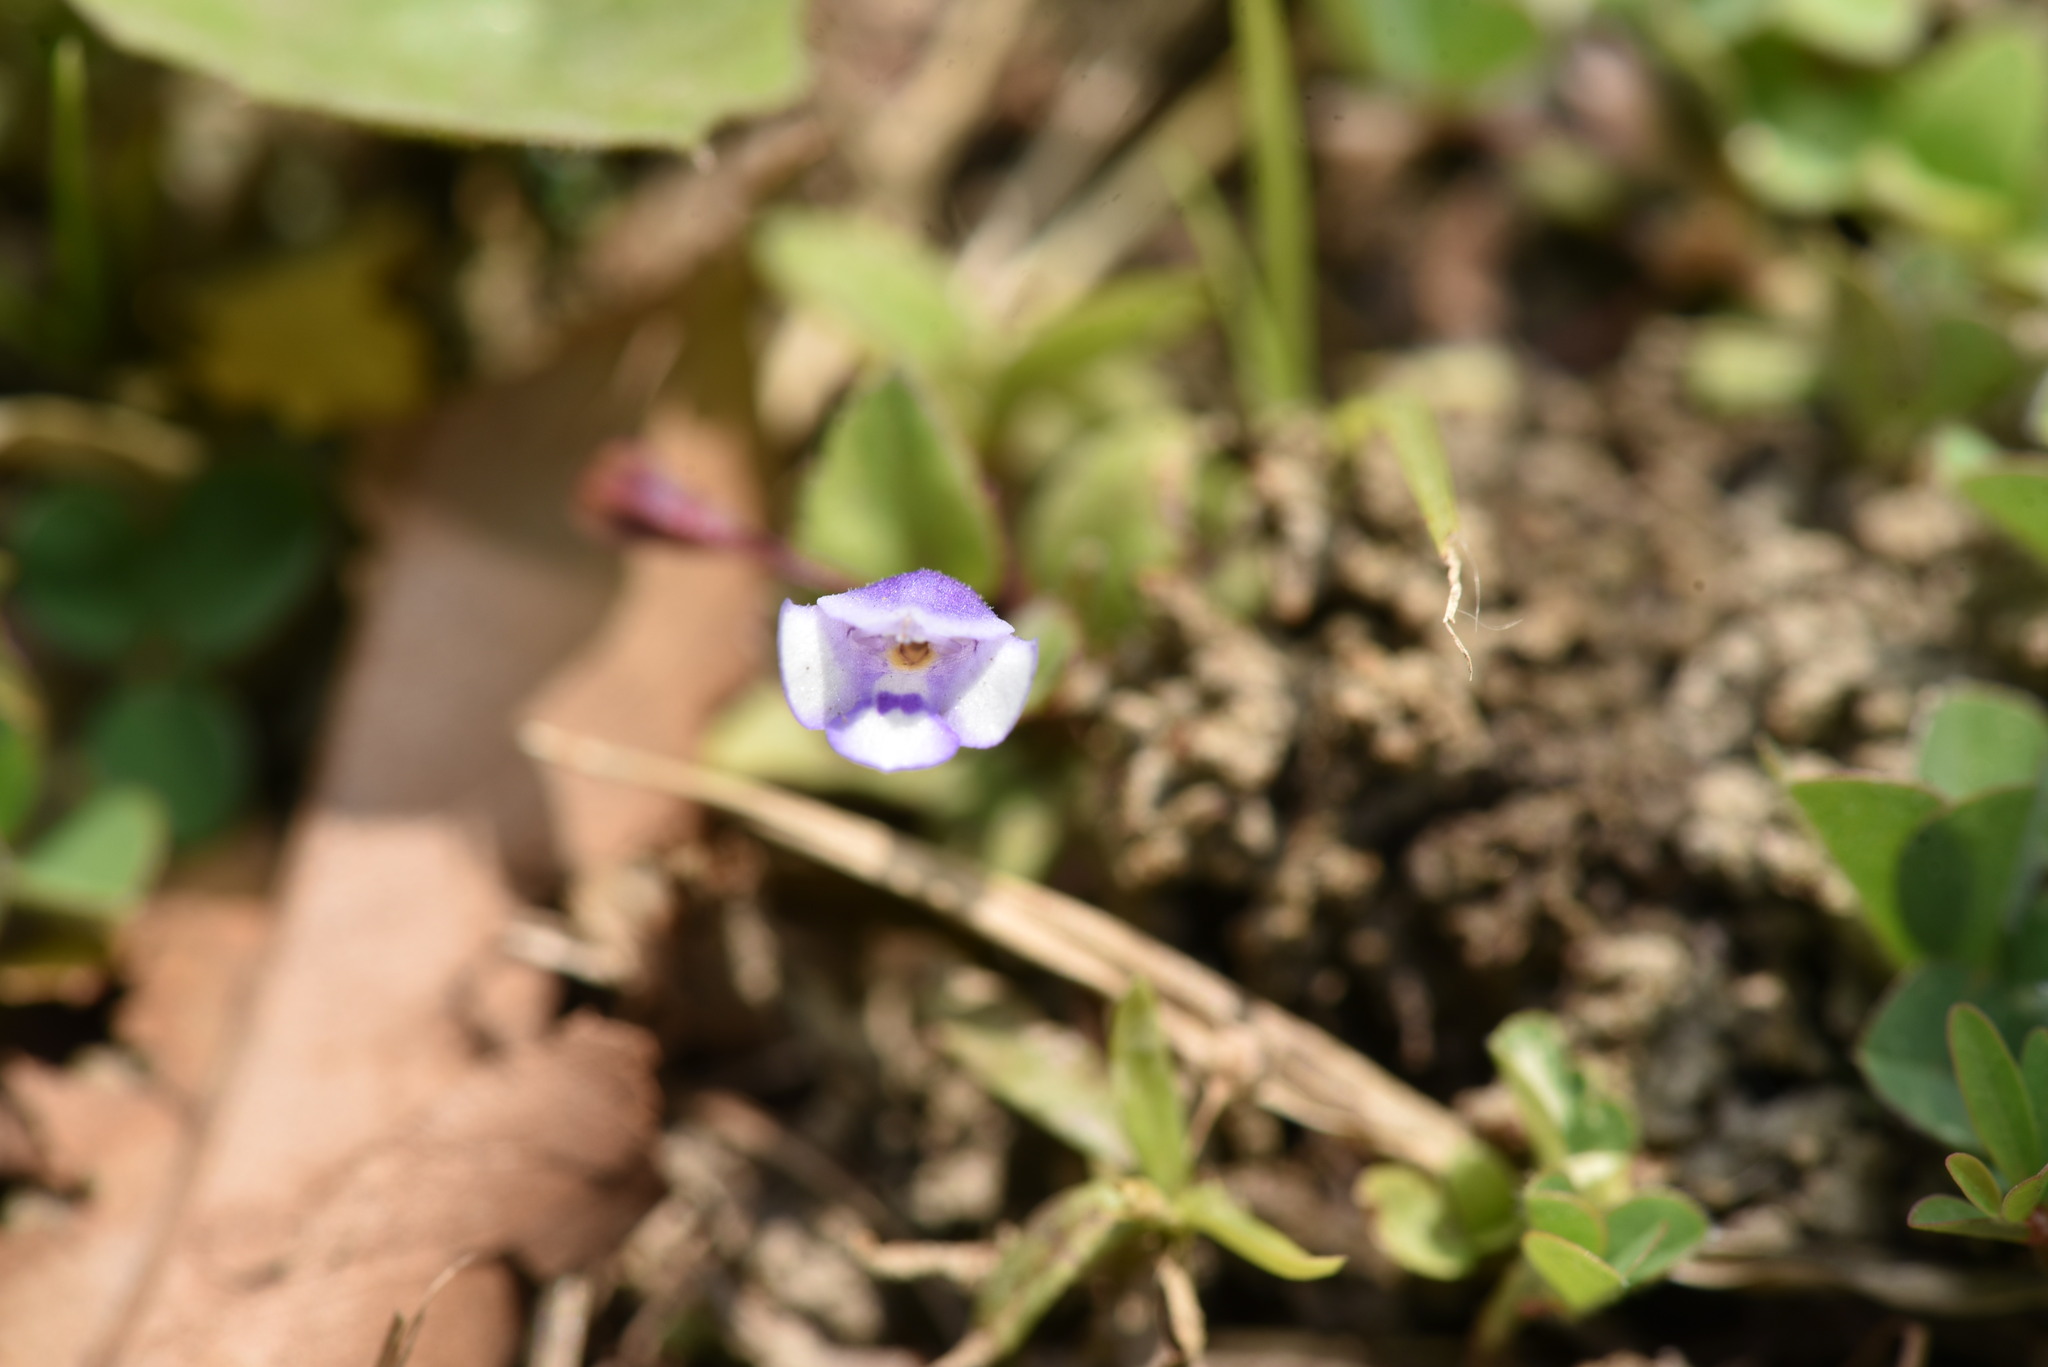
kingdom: Plantae
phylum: Tracheophyta
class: Magnoliopsida
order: Lamiales
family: Linderniaceae
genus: Torenia
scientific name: Torenia crustacea
